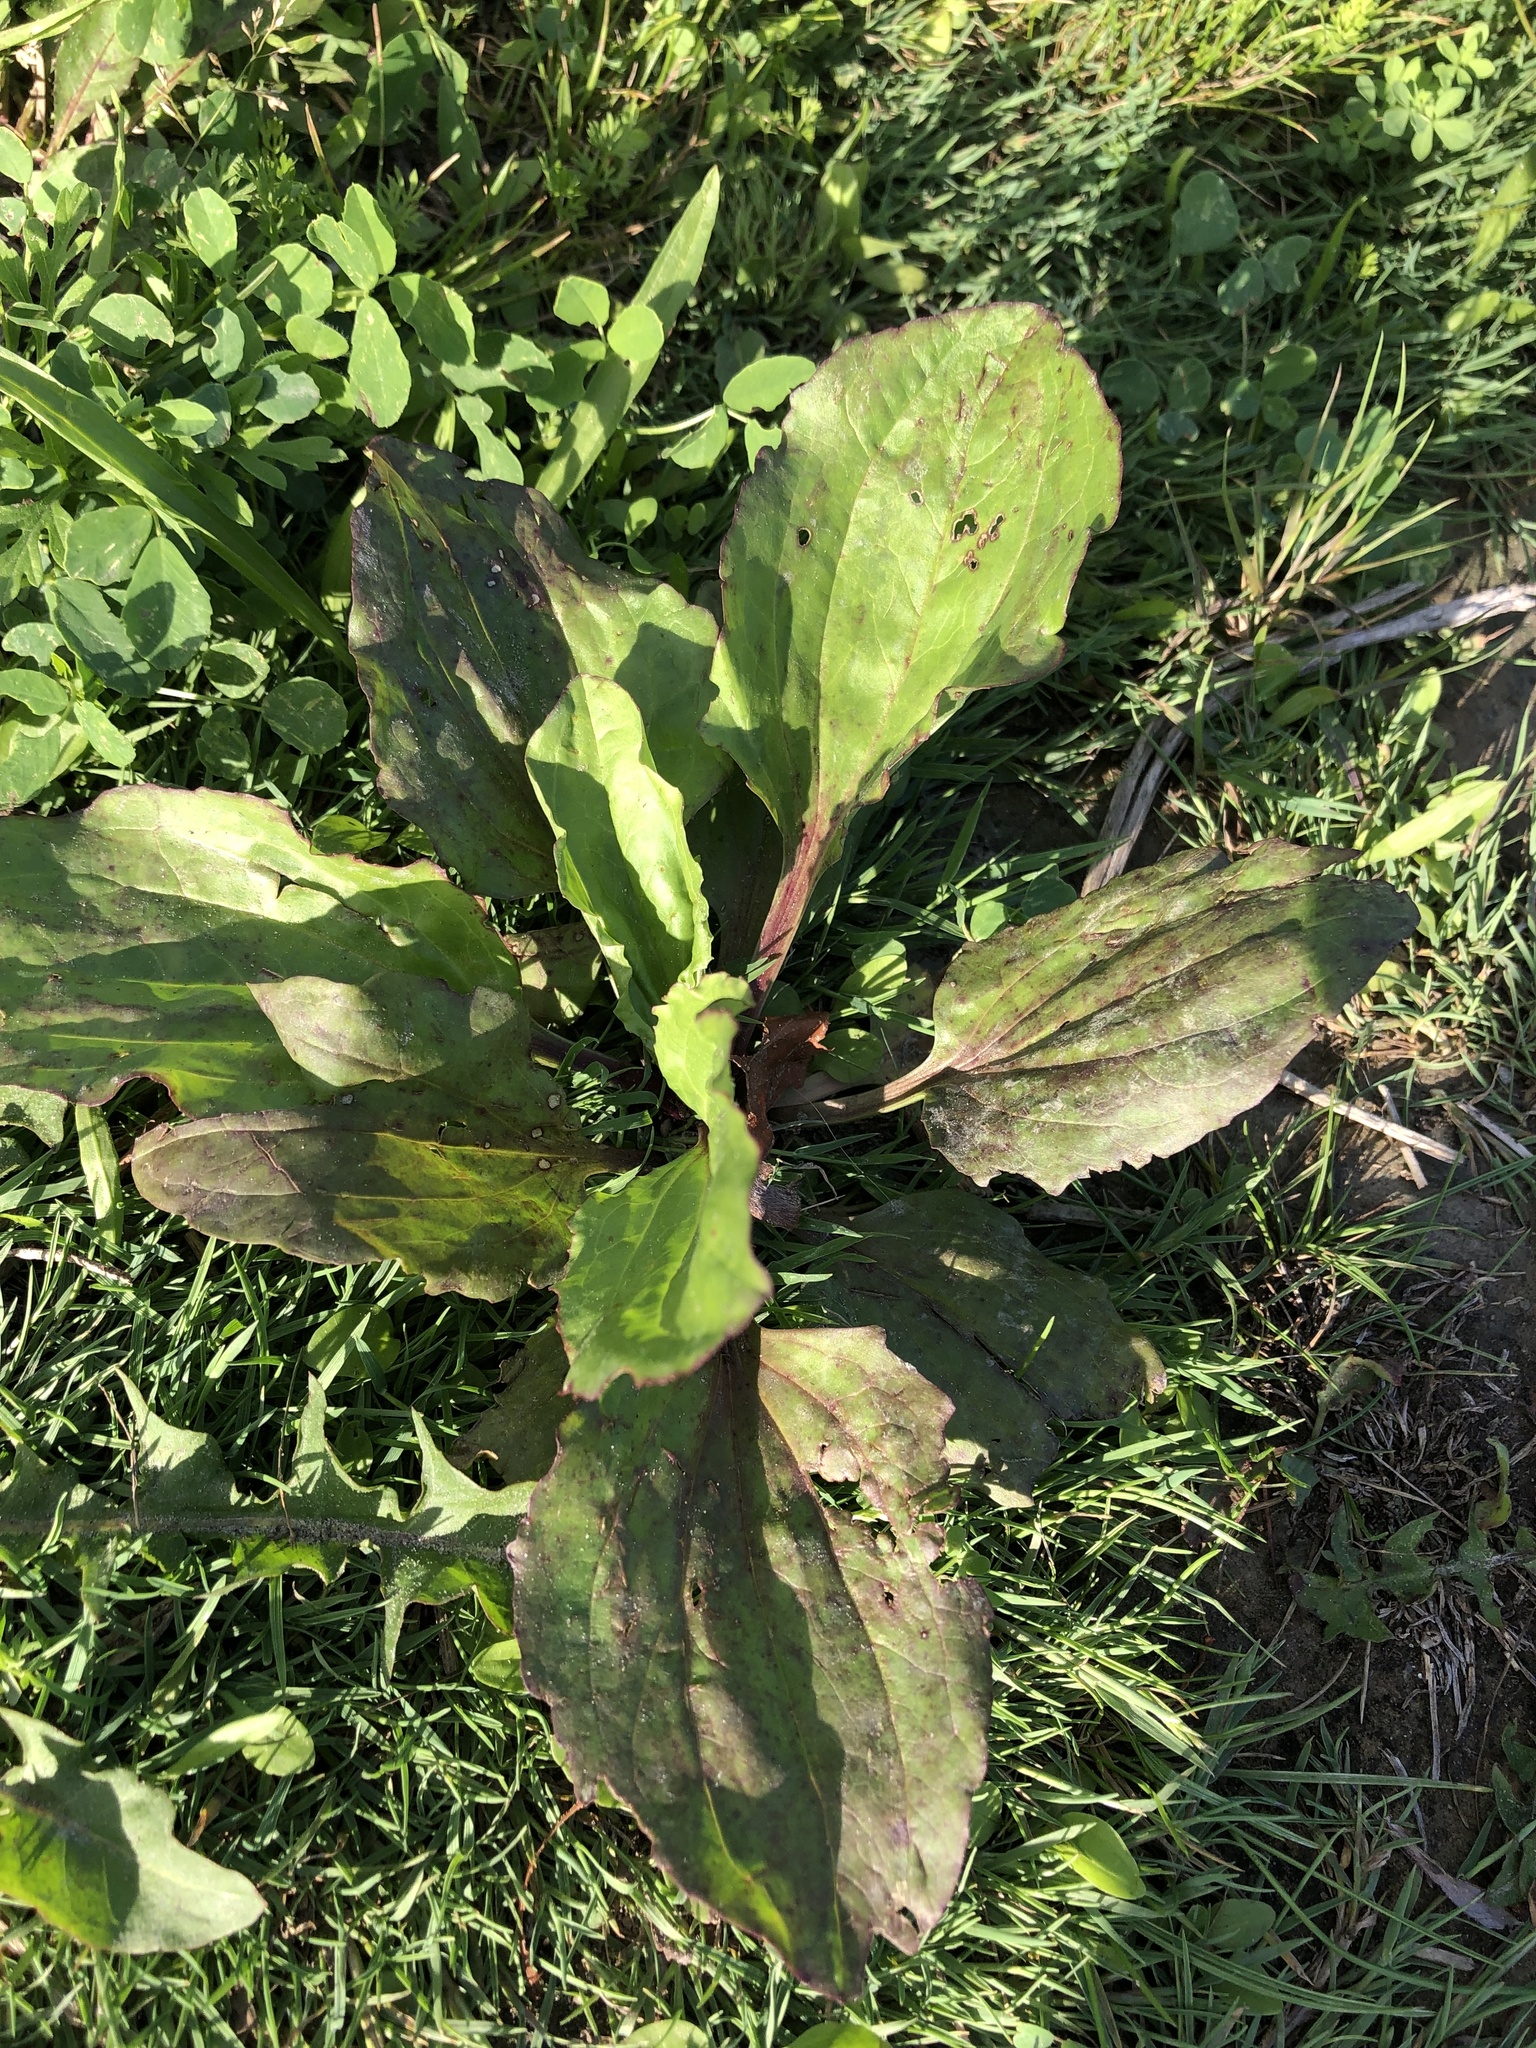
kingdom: Plantae
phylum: Tracheophyta
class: Magnoliopsida
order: Lamiales
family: Plantaginaceae
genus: Plantago
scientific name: Plantago rugelii
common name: American plantain
